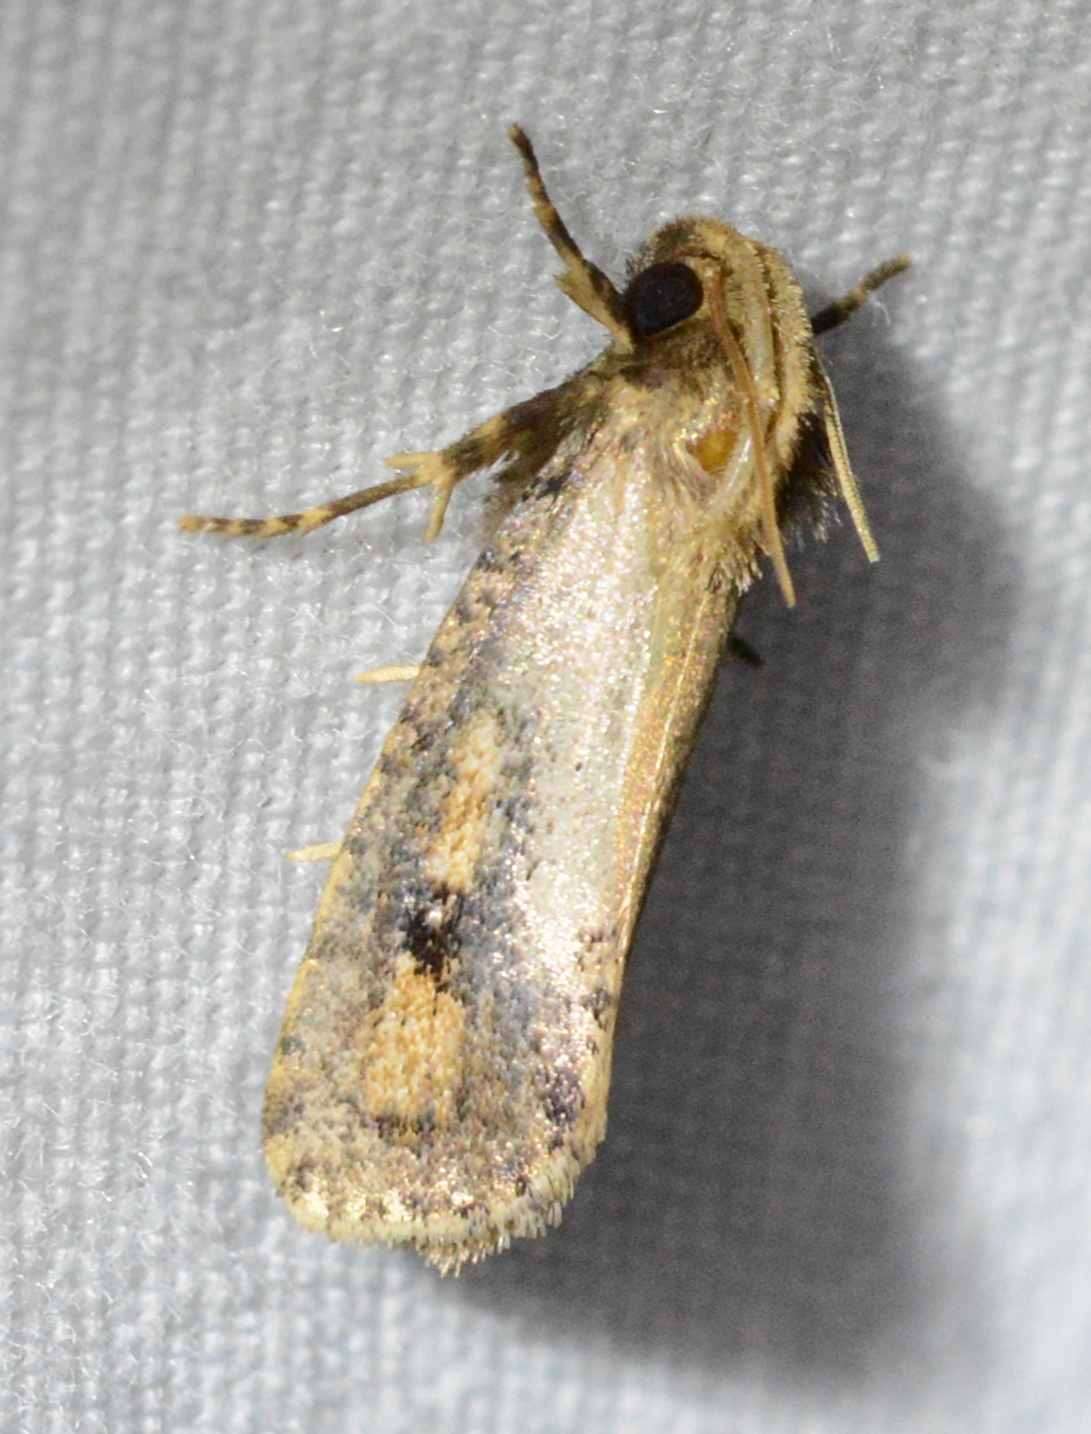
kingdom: Animalia
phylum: Arthropoda
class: Insecta
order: Lepidoptera
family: Tineidae
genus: Acrolophus
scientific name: Acrolophus popeanella
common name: Clemens' grass tubeworm moth
